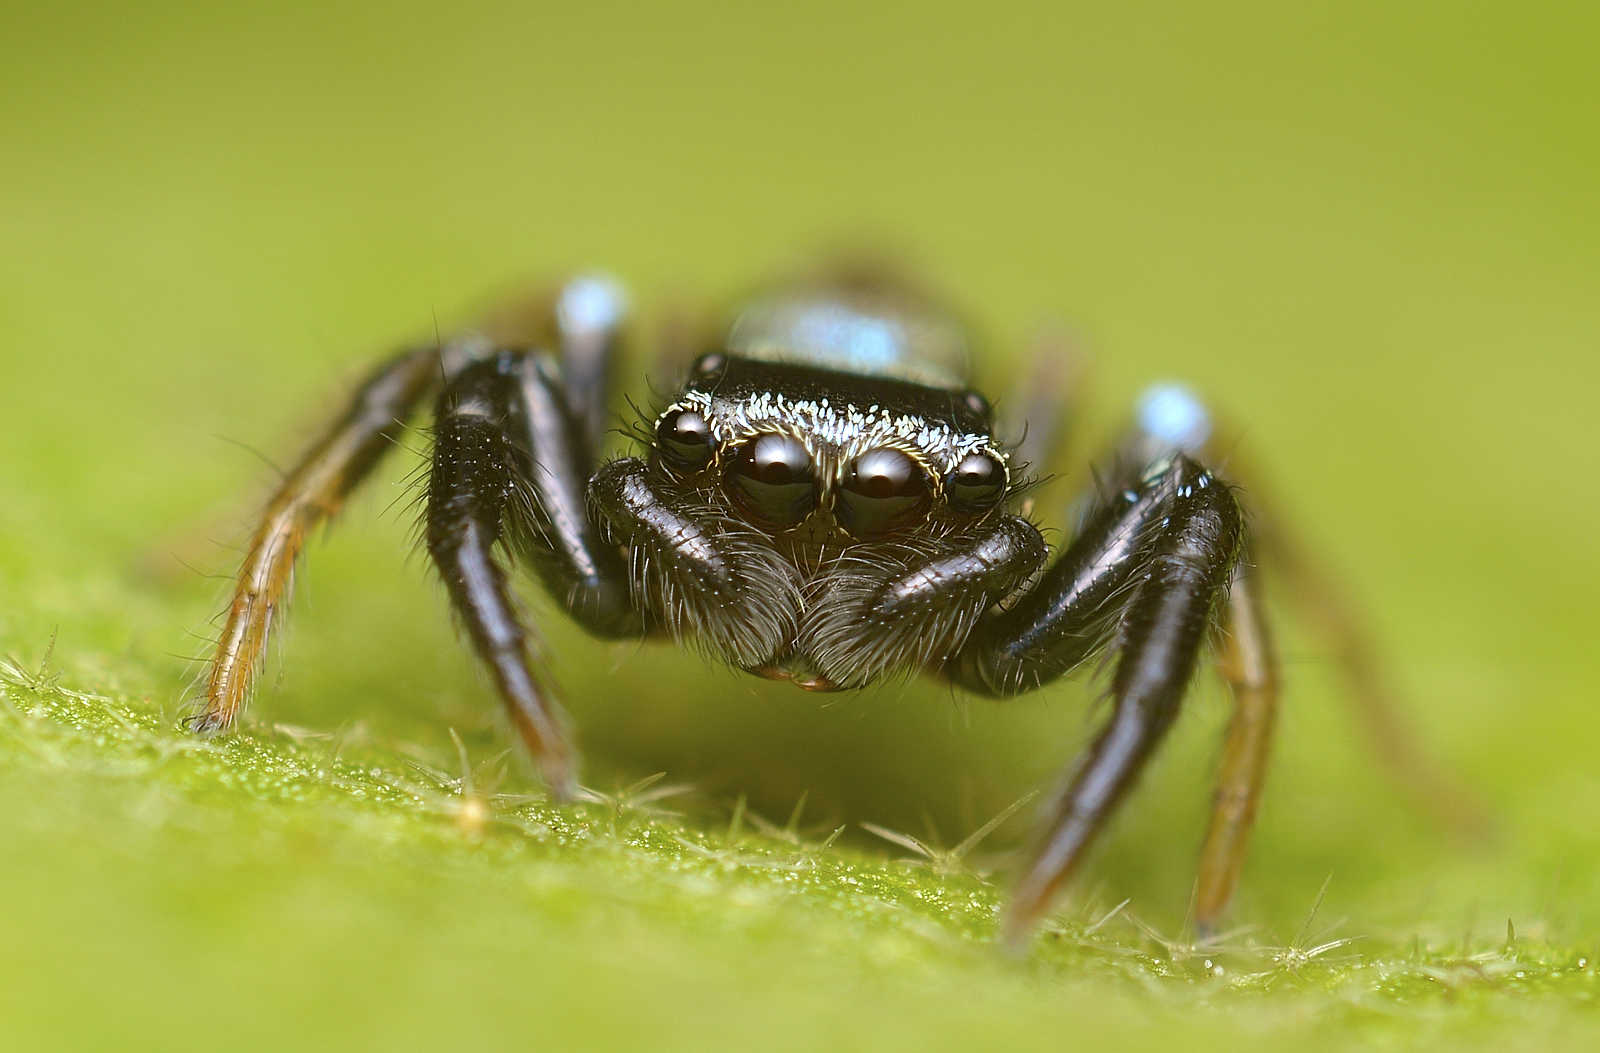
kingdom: Animalia
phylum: Arthropoda
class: Arachnida
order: Araneae
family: Salticidae
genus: Thiania
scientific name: Thiania bhamoensis
